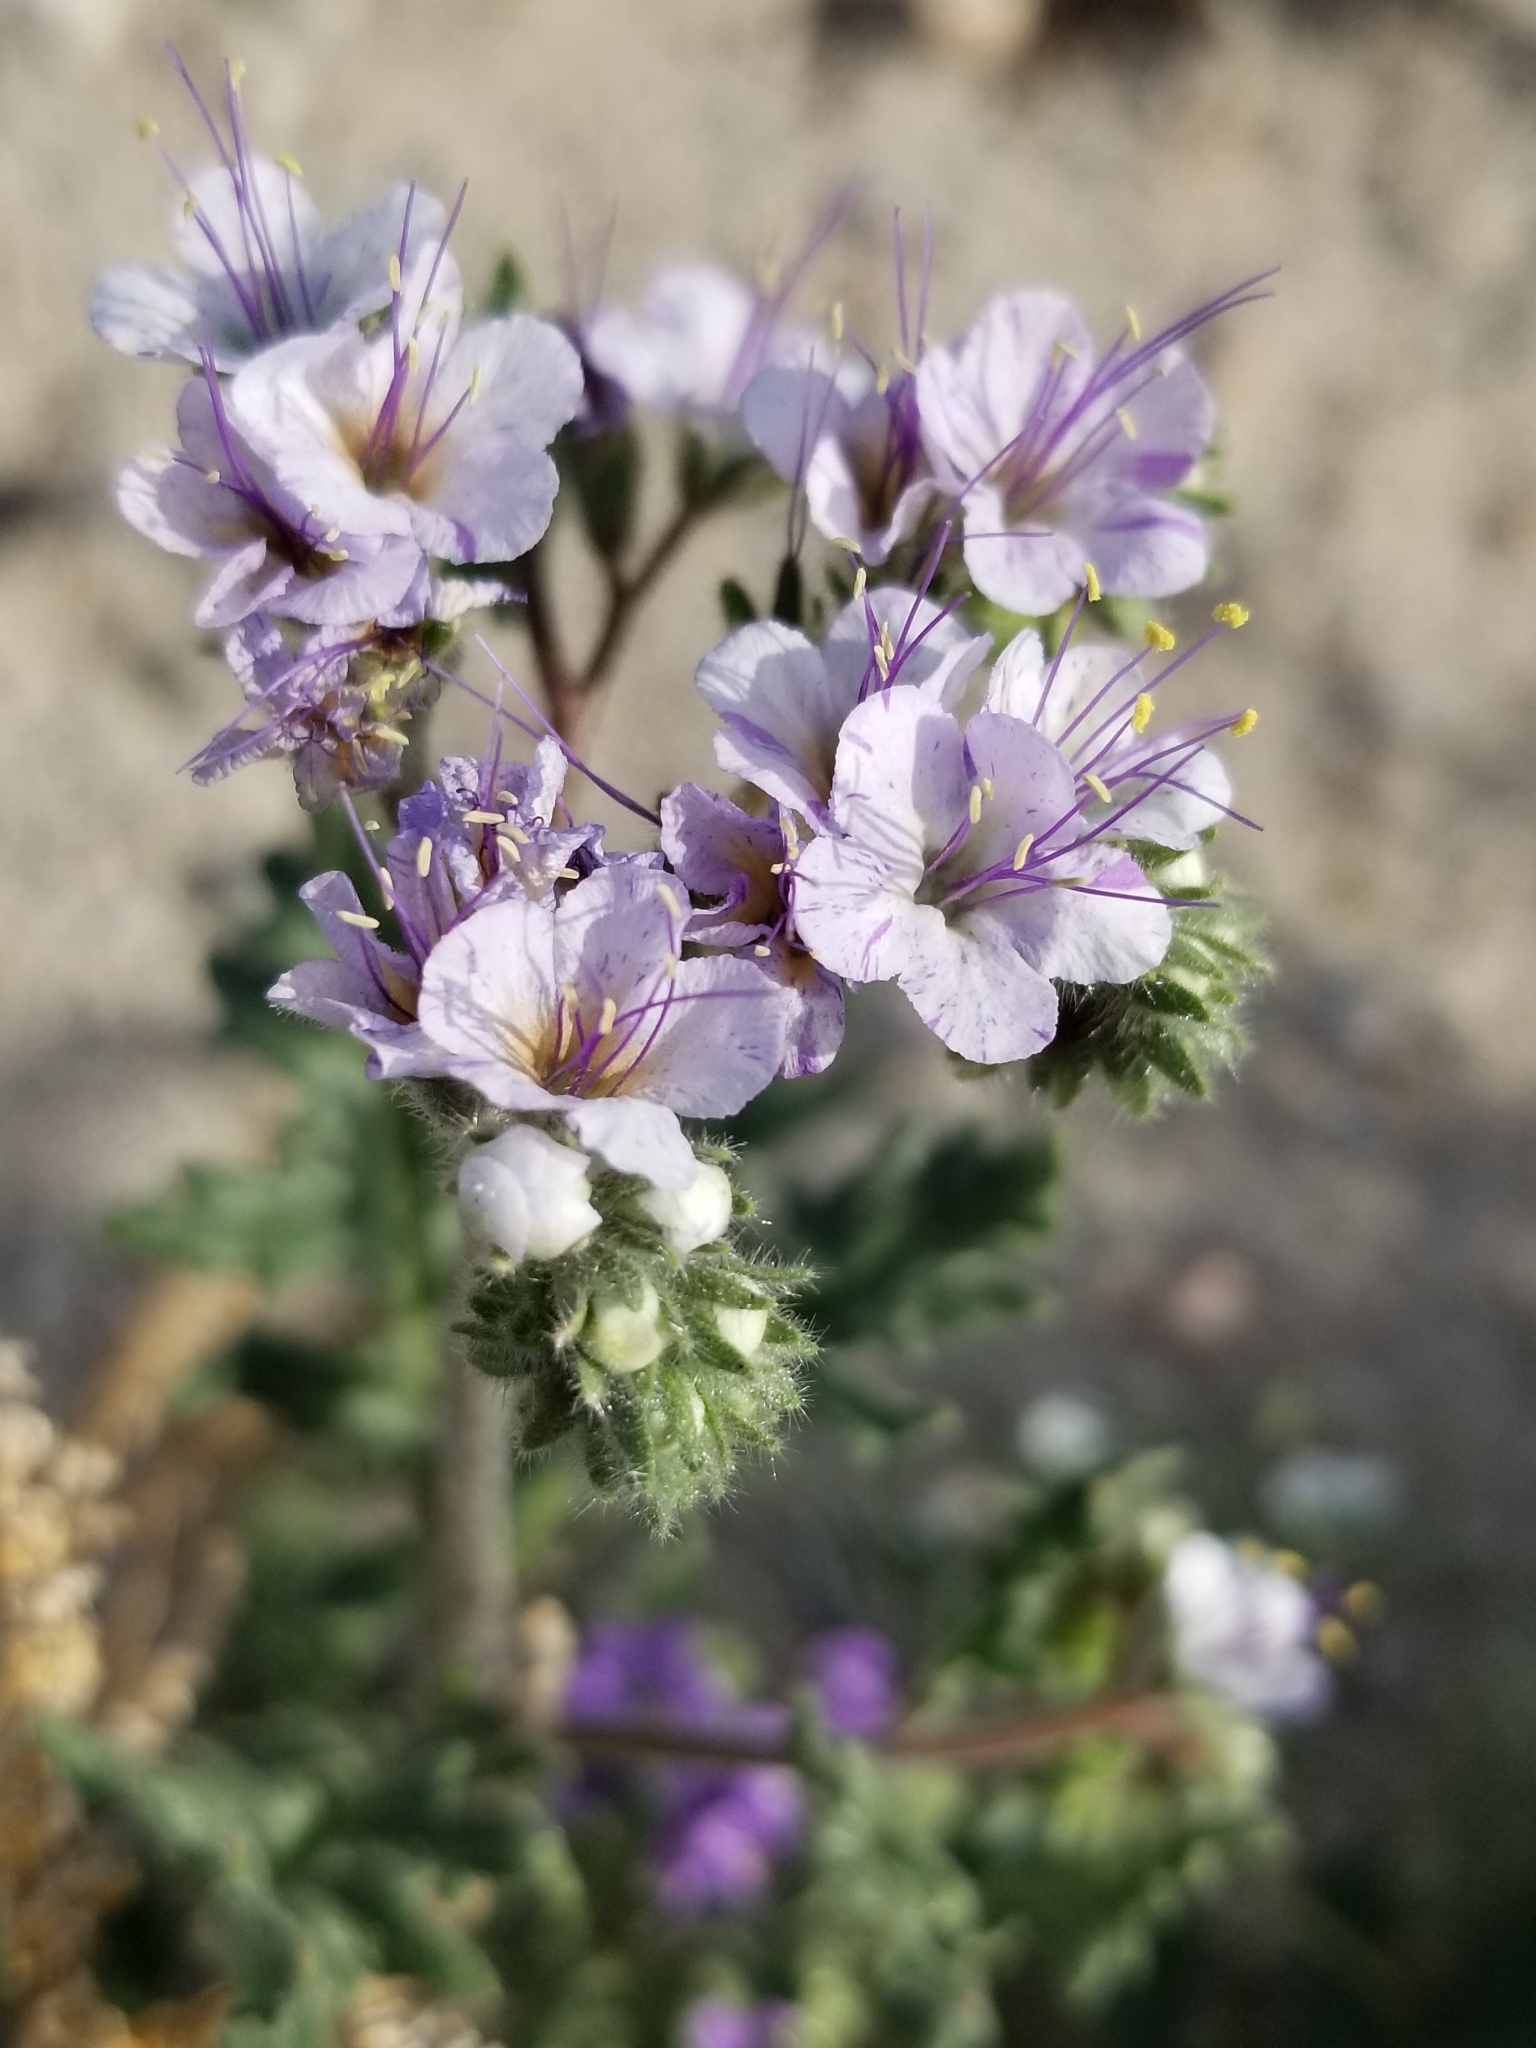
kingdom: Plantae
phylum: Tracheophyta
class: Magnoliopsida
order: Boraginales
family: Hydrophyllaceae
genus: Phacelia
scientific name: Phacelia crenulata
